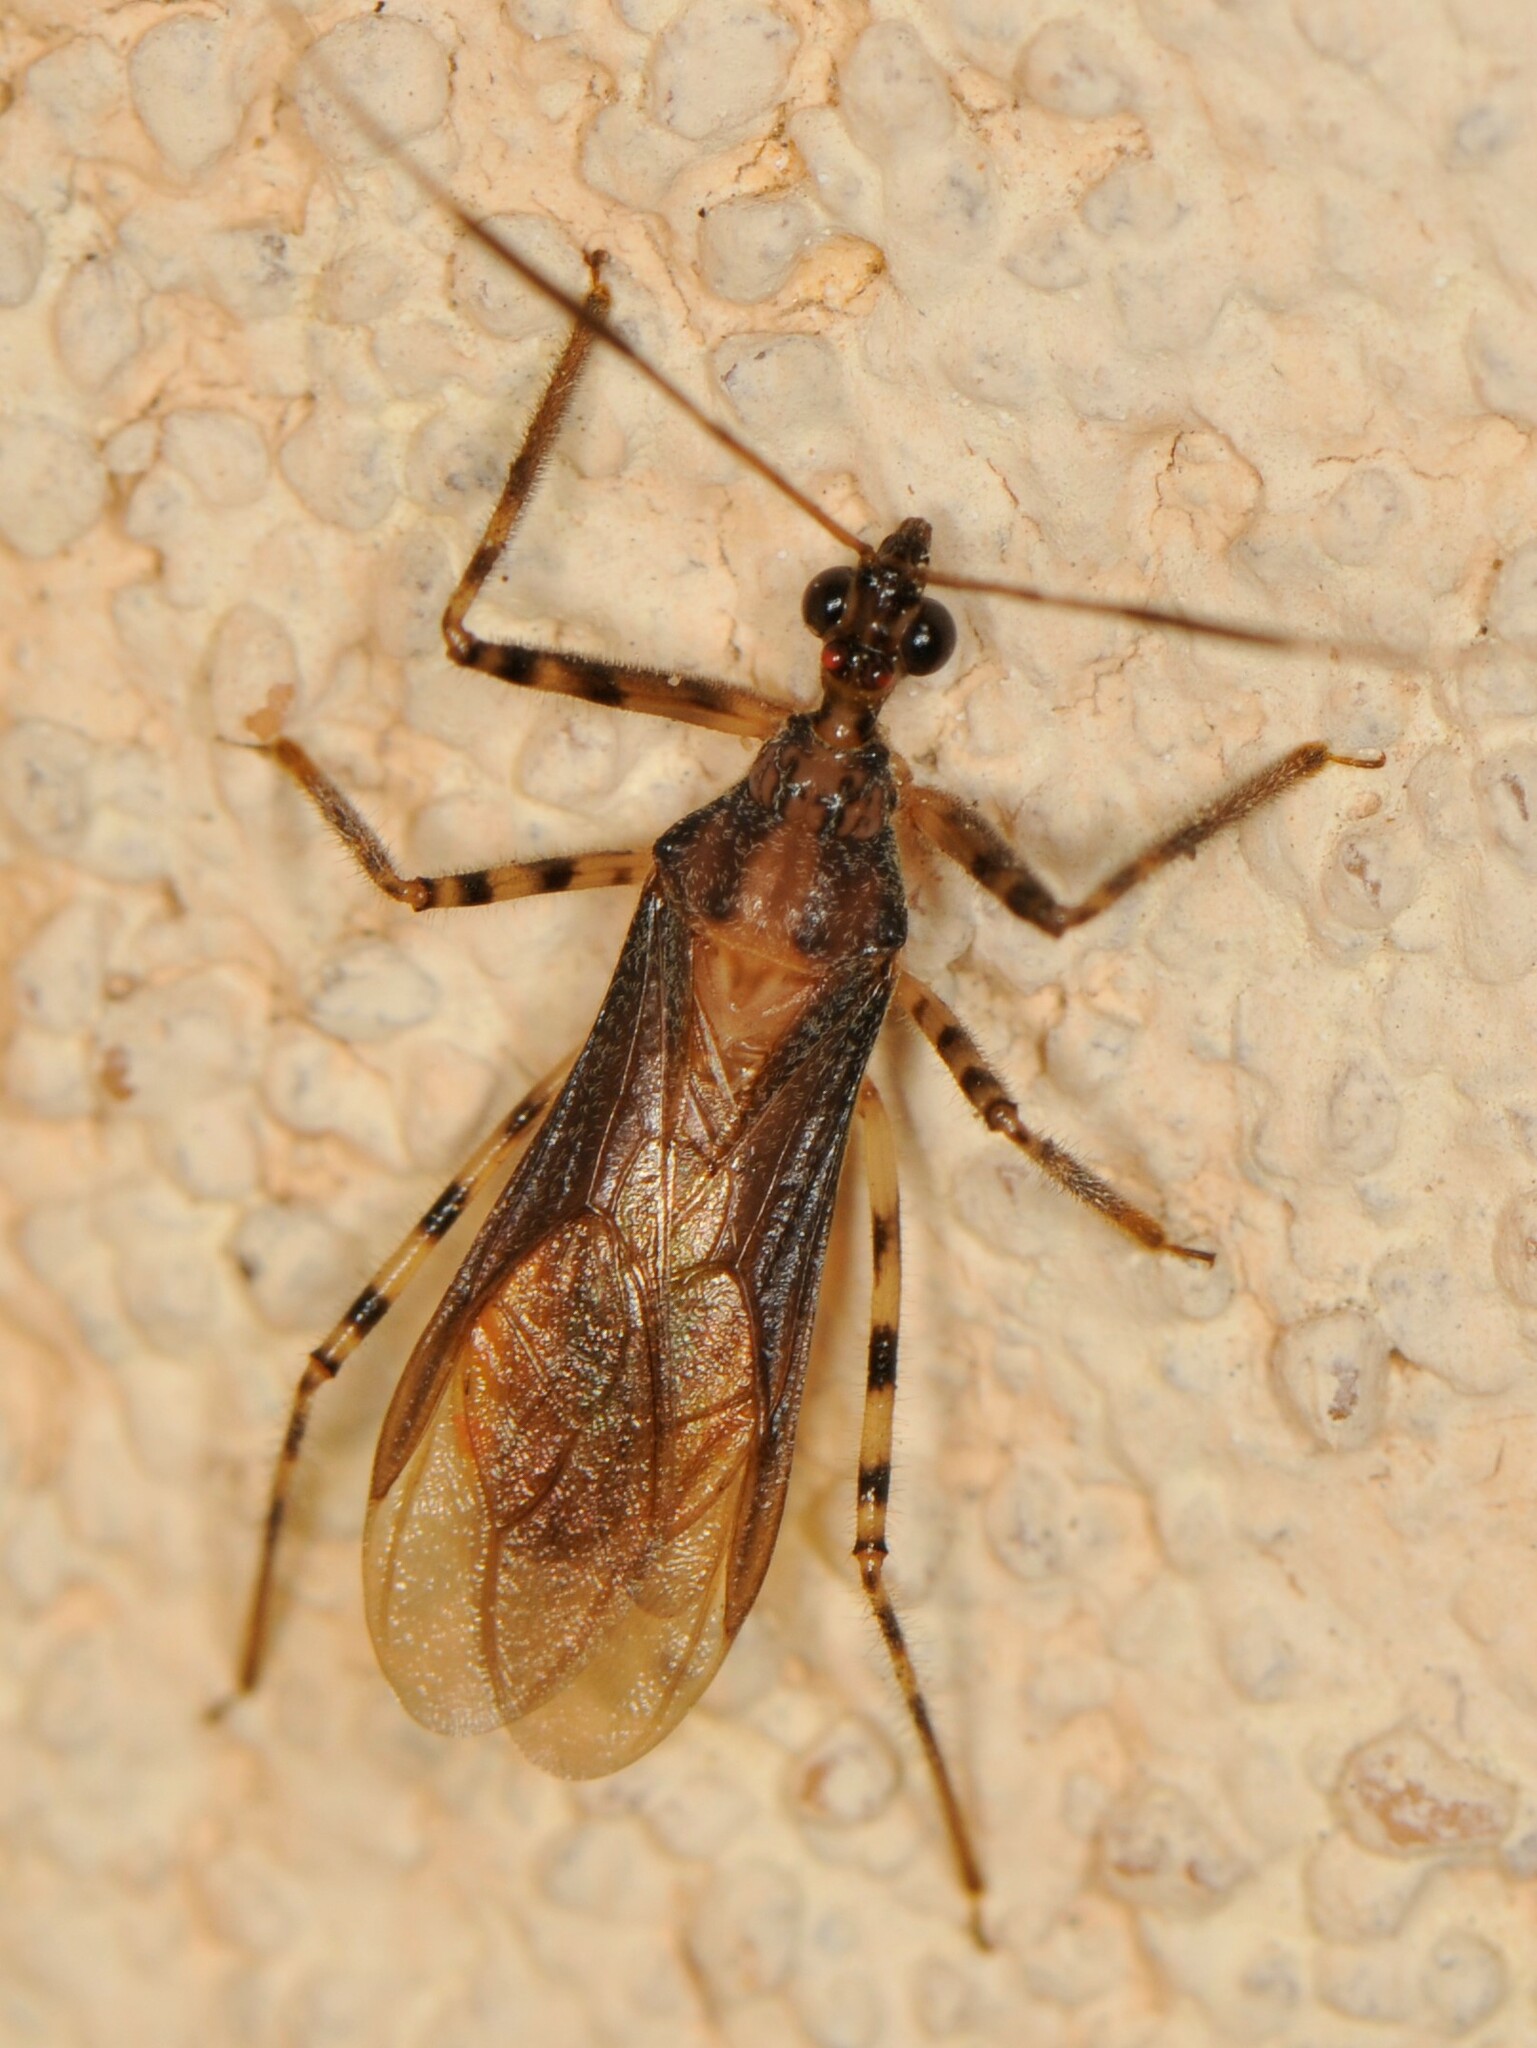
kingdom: Animalia
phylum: Arthropoda
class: Insecta
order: Hemiptera
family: Reduviidae
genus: Castolus
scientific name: Castolus ferox
